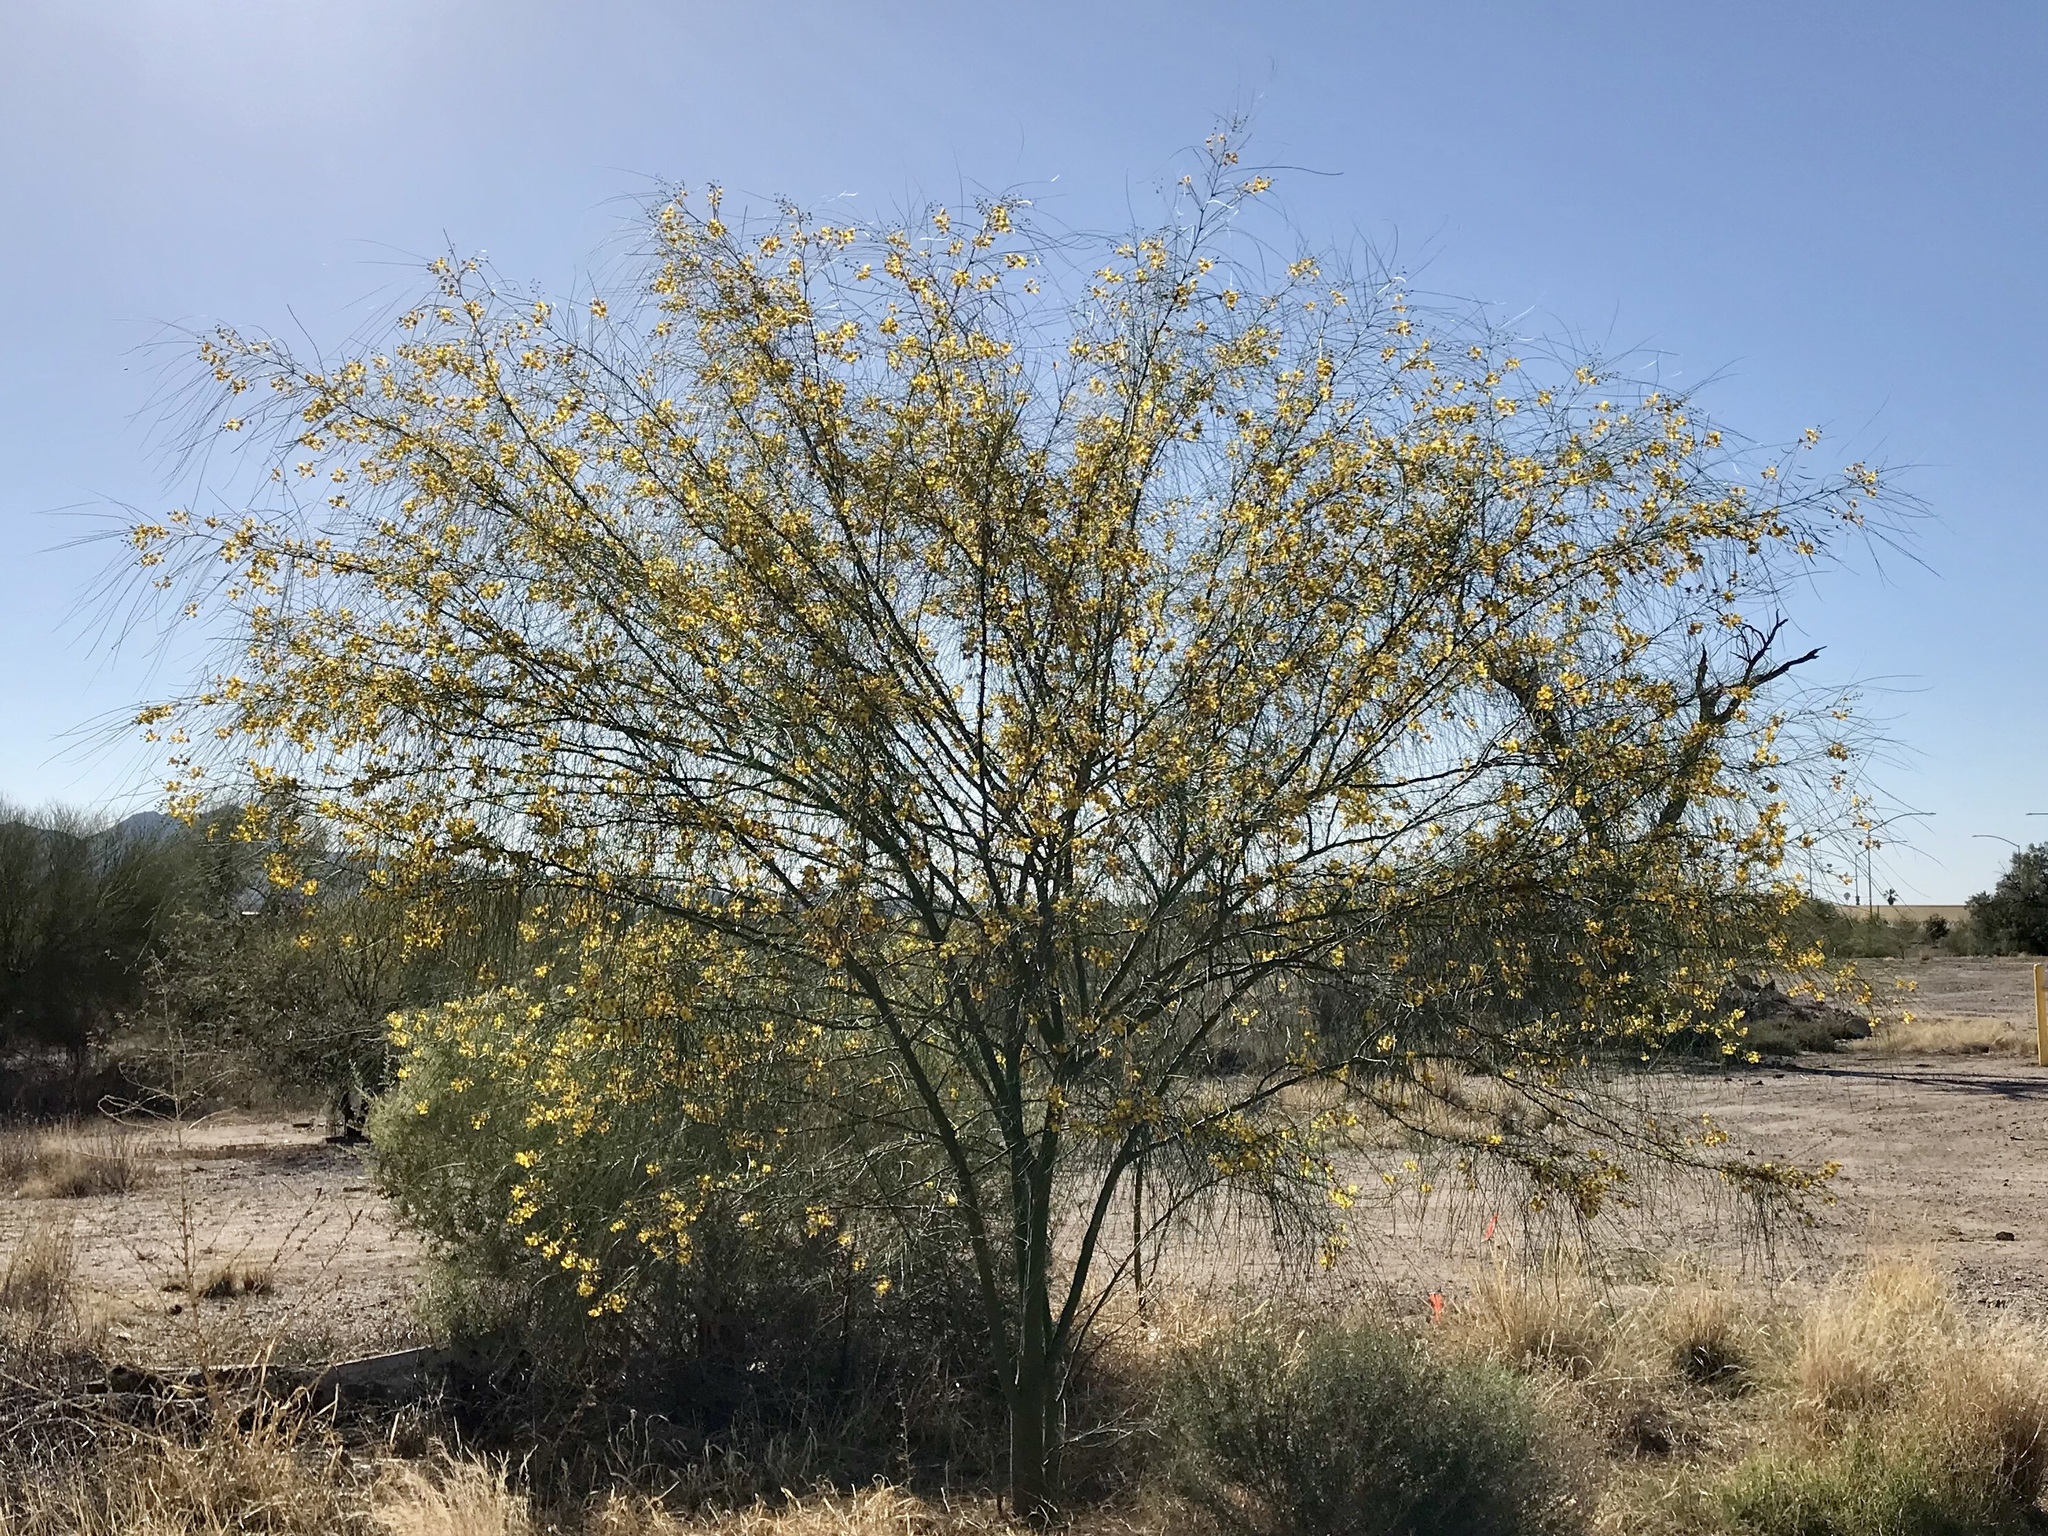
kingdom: Plantae
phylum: Tracheophyta
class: Magnoliopsida
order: Fabales
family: Fabaceae
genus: Parkinsonia
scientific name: Parkinsonia aculeata
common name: Jerusalem thorn
